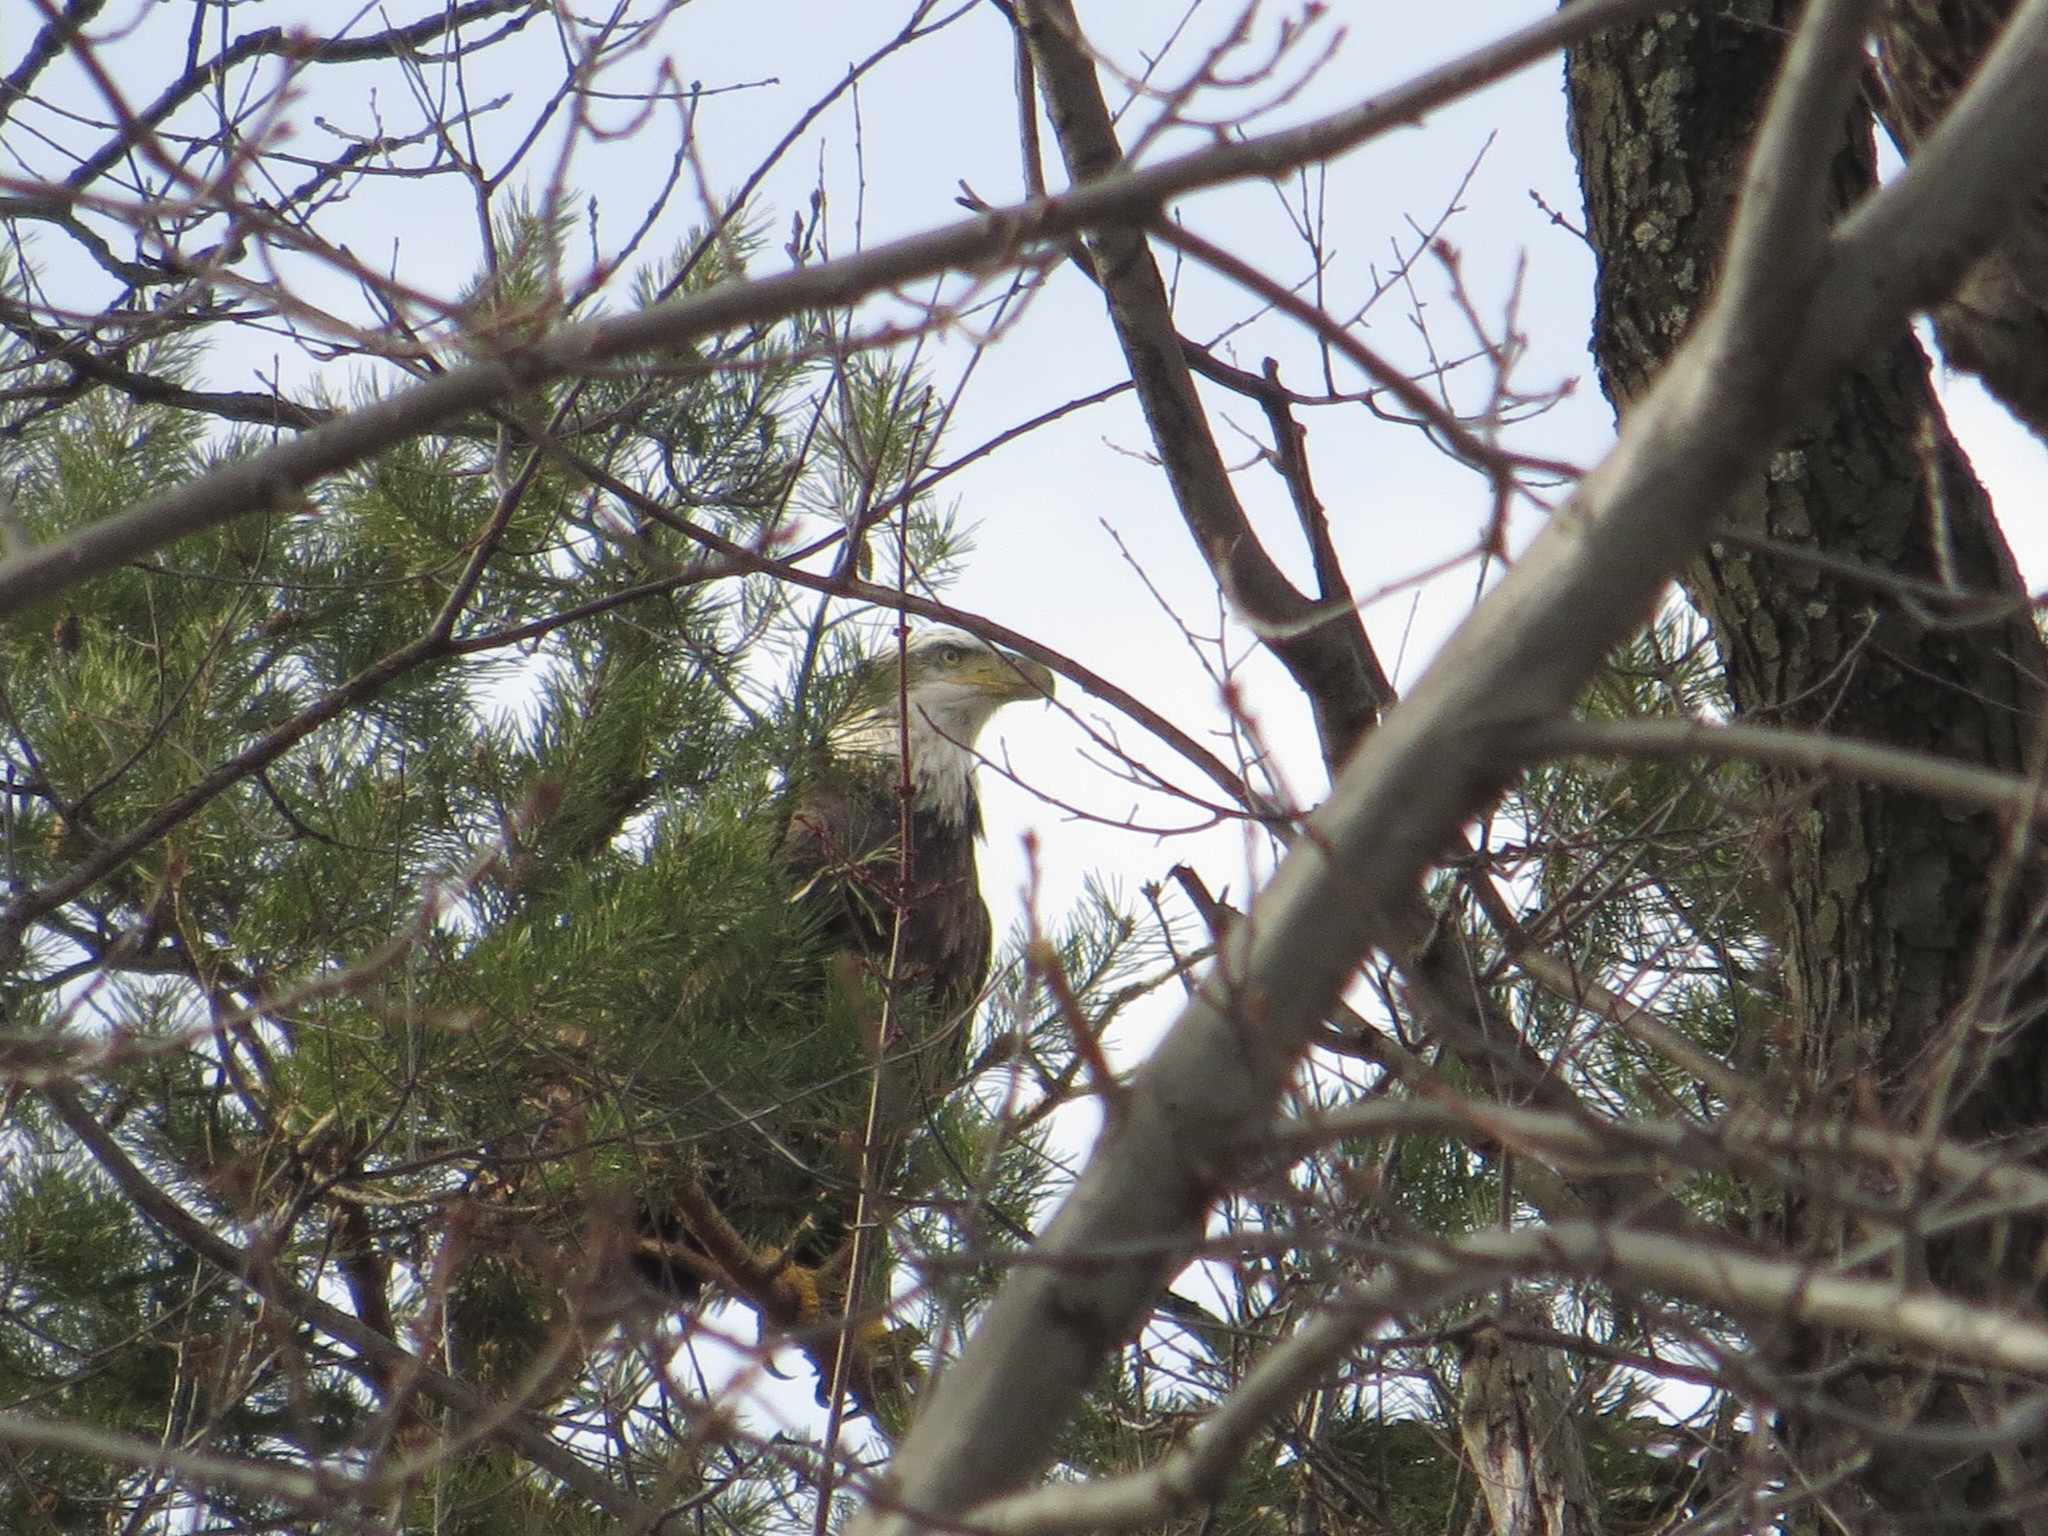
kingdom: Animalia
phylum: Chordata
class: Aves
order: Accipitriformes
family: Accipitridae
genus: Haliaeetus
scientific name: Haliaeetus leucocephalus
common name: Bald eagle
